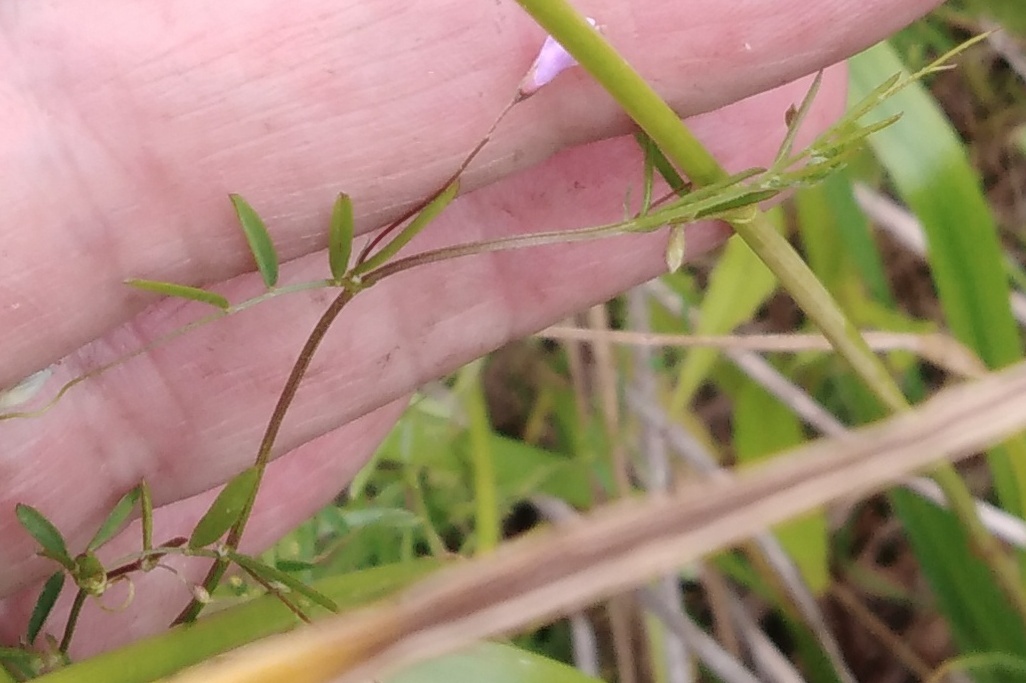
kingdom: Plantae
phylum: Tracheophyta
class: Magnoliopsida
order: Fabales
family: Fabaceae
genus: Vicia
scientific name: Vicia tetrasperma
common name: Smooth tare
